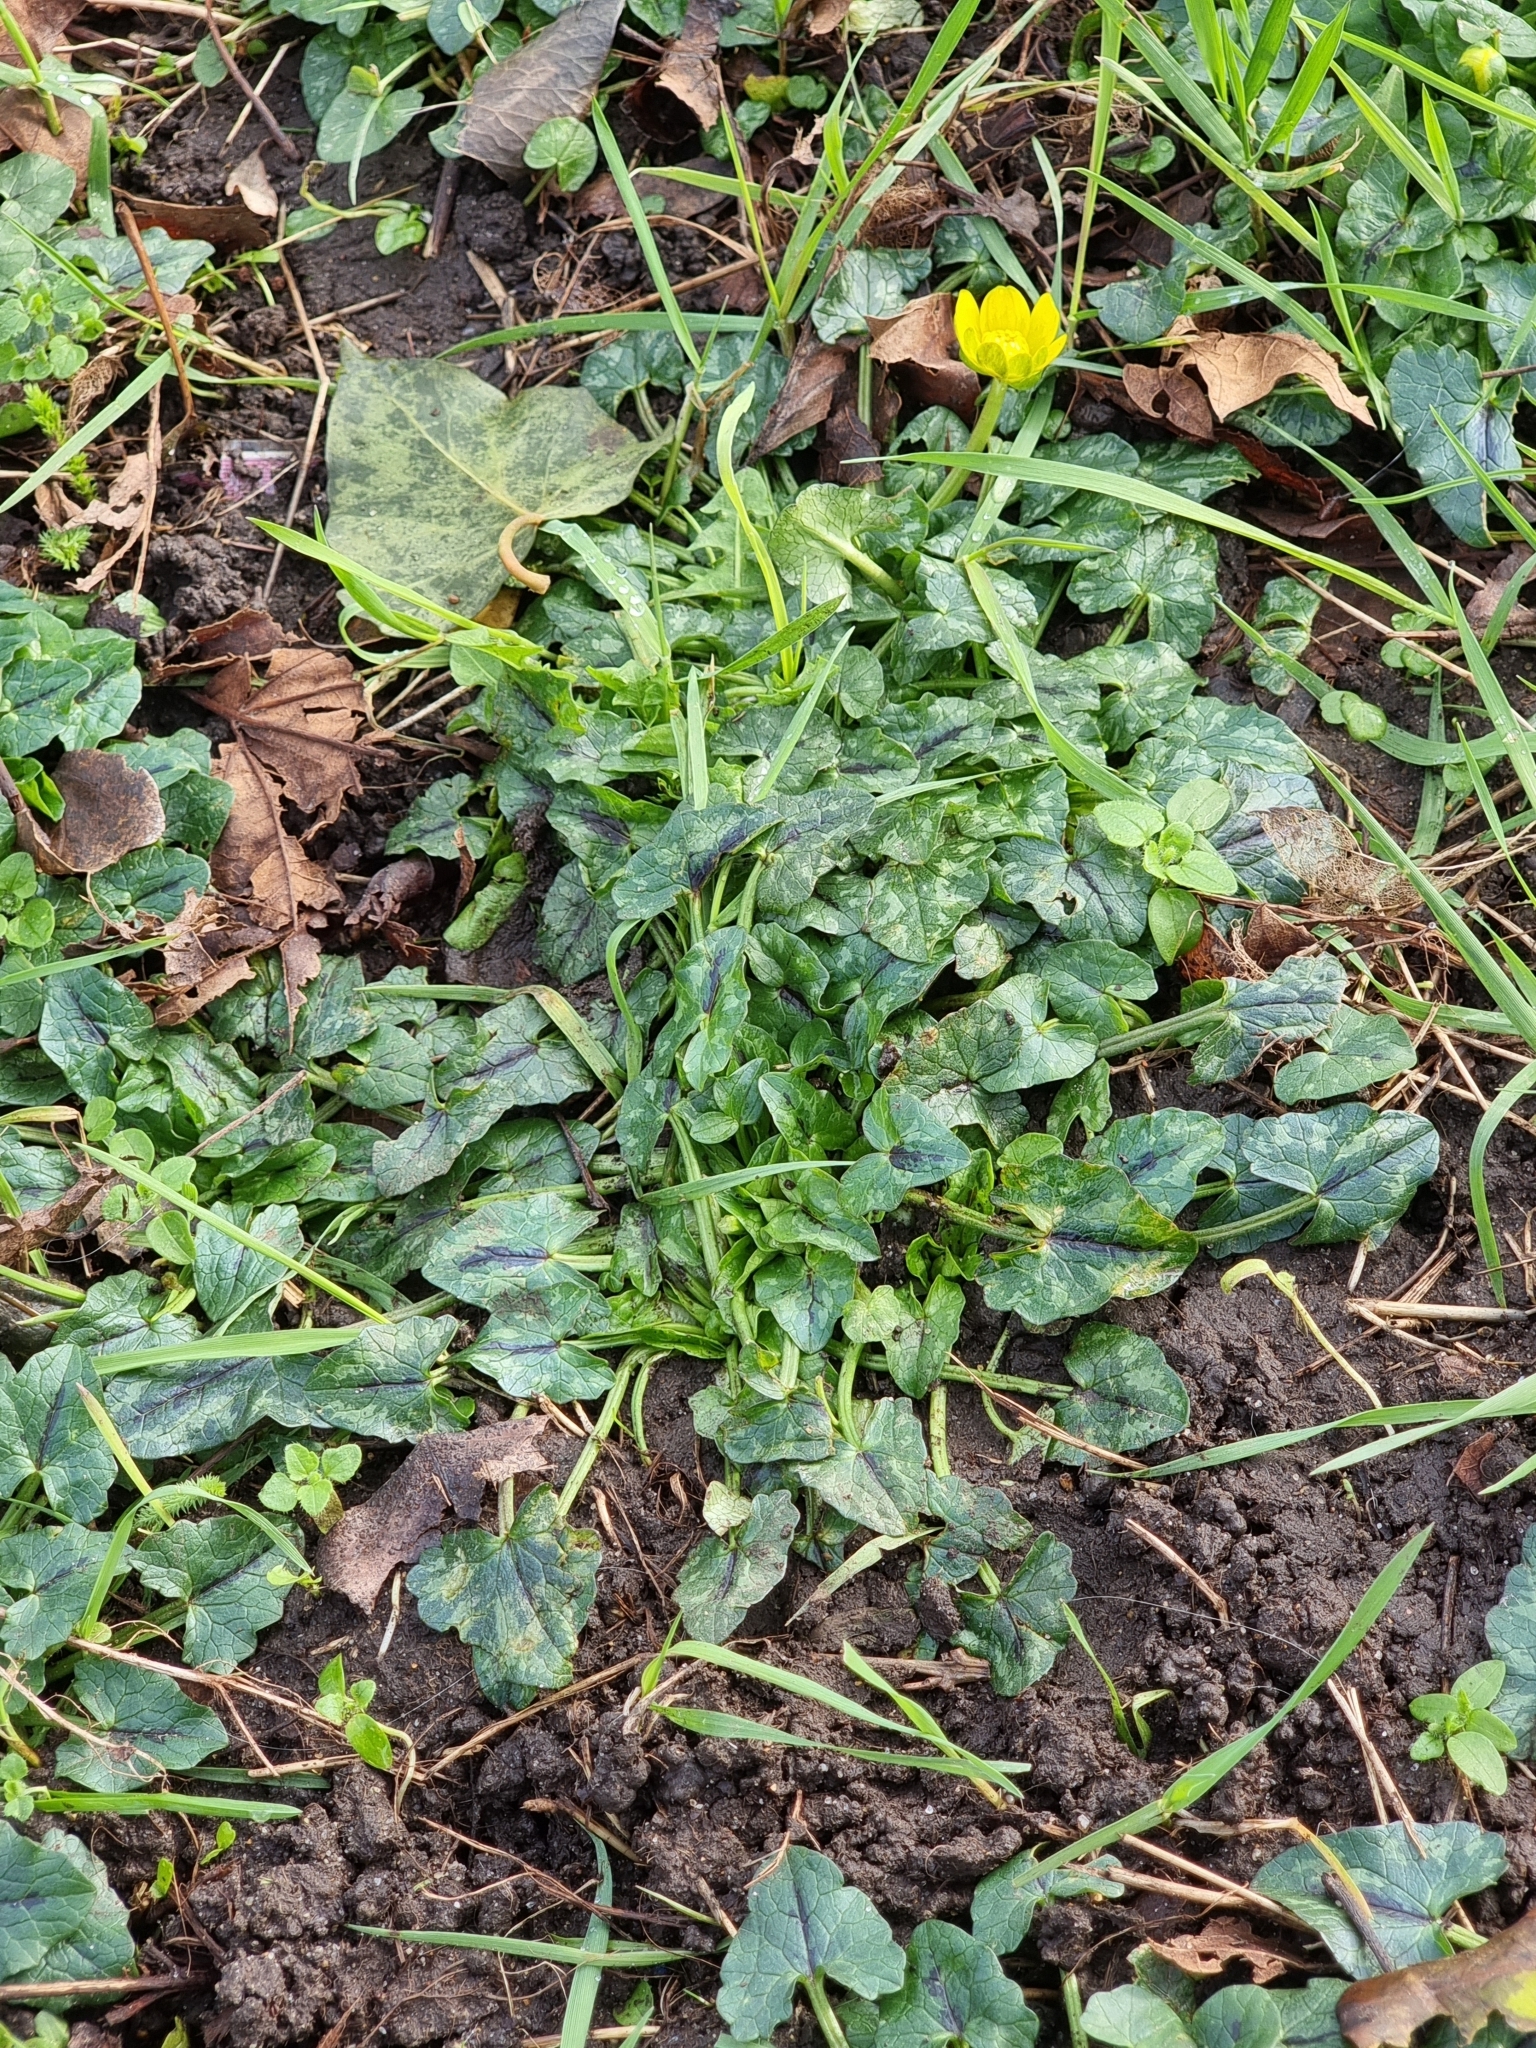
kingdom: Plantae
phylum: Tracheophyta
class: Magnoliopsida
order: Ranunculales
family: Ranunculaceae
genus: Ficaria
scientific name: Ficaria verna
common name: Lesser celandine
